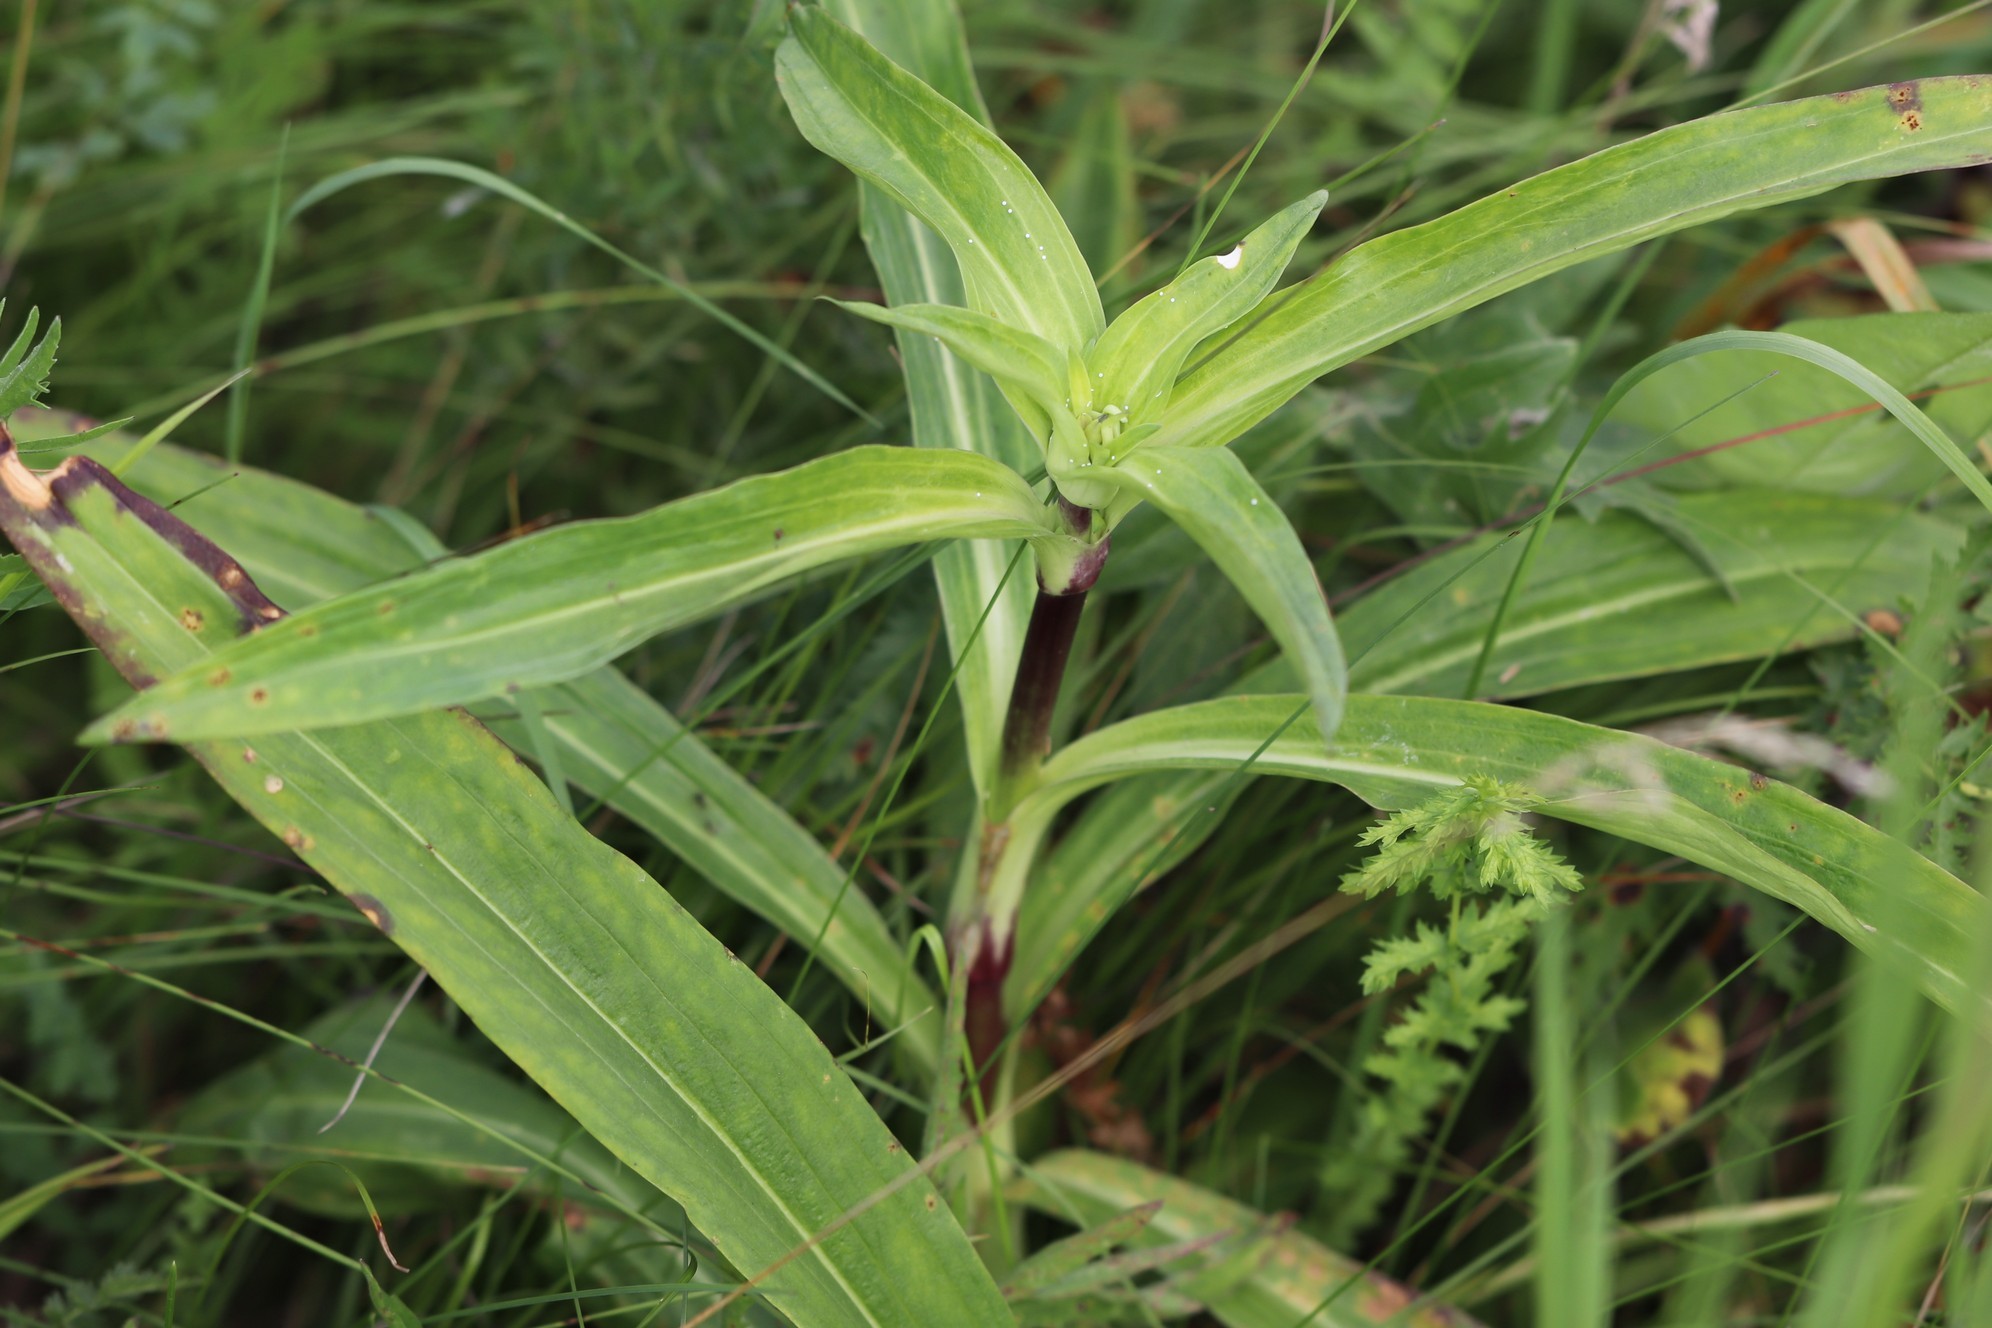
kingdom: Plantae
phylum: Tracheophyta
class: Magnoliopsida
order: Gentianales
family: Gentianaceae
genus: Gentiana
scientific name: Gentiana macrophylla
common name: Large-leaf gentian
